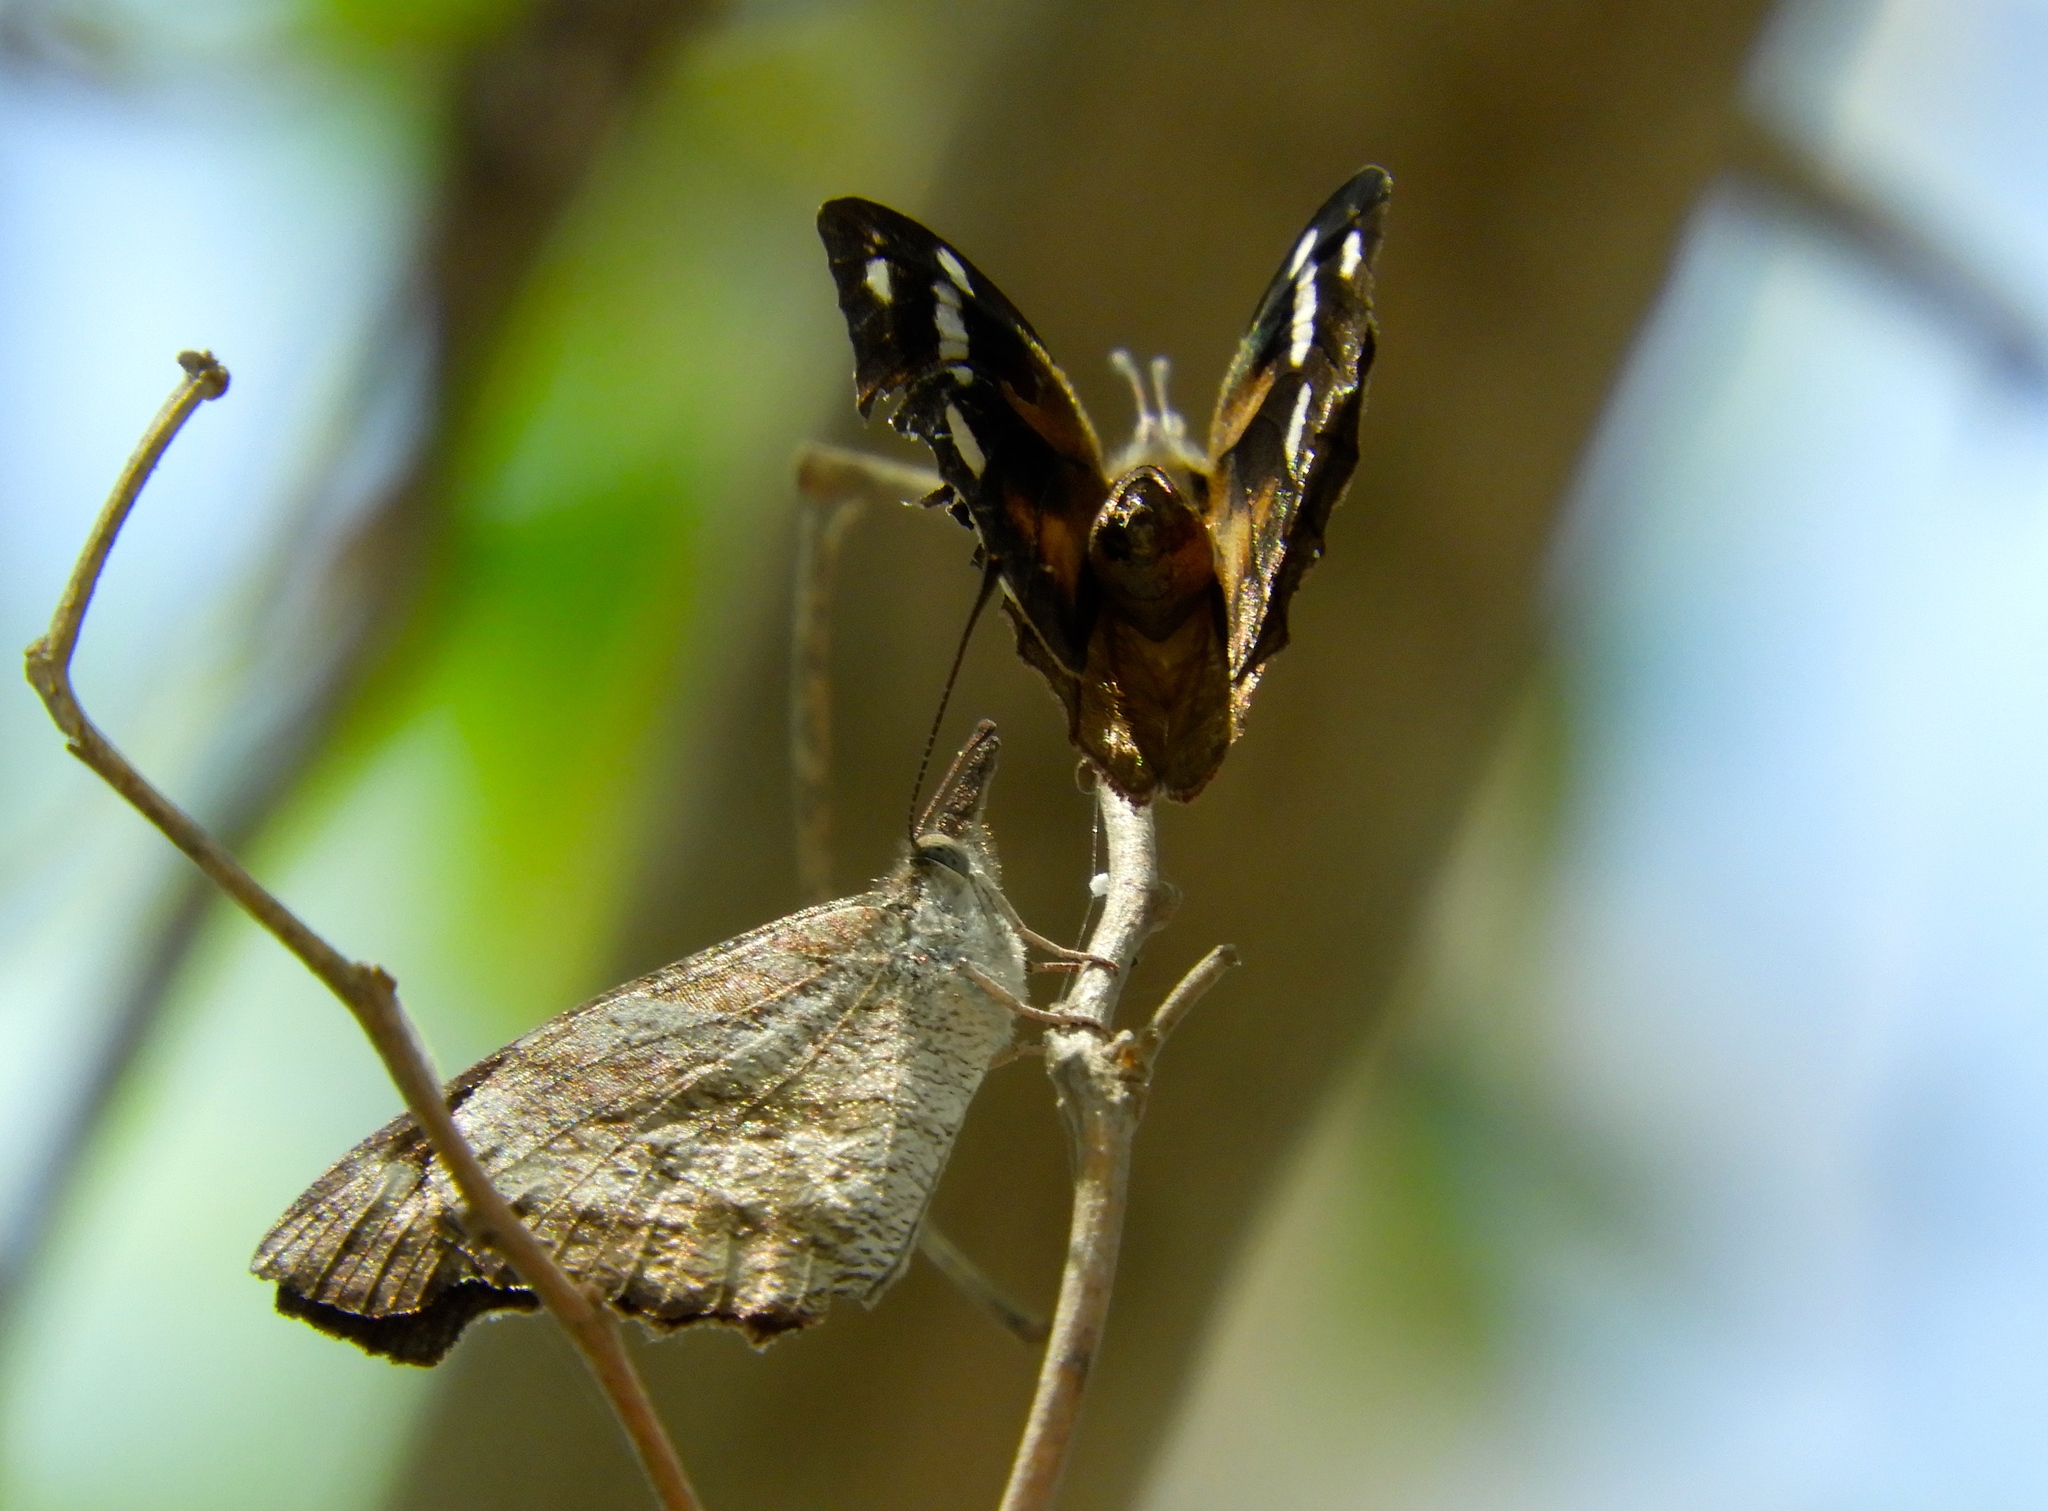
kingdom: Animalia
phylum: Arthropoda
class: Insecta
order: Lepidoptera
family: Nymphalidae
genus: Libytheana
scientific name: Libytheana carinenta
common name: American snout
